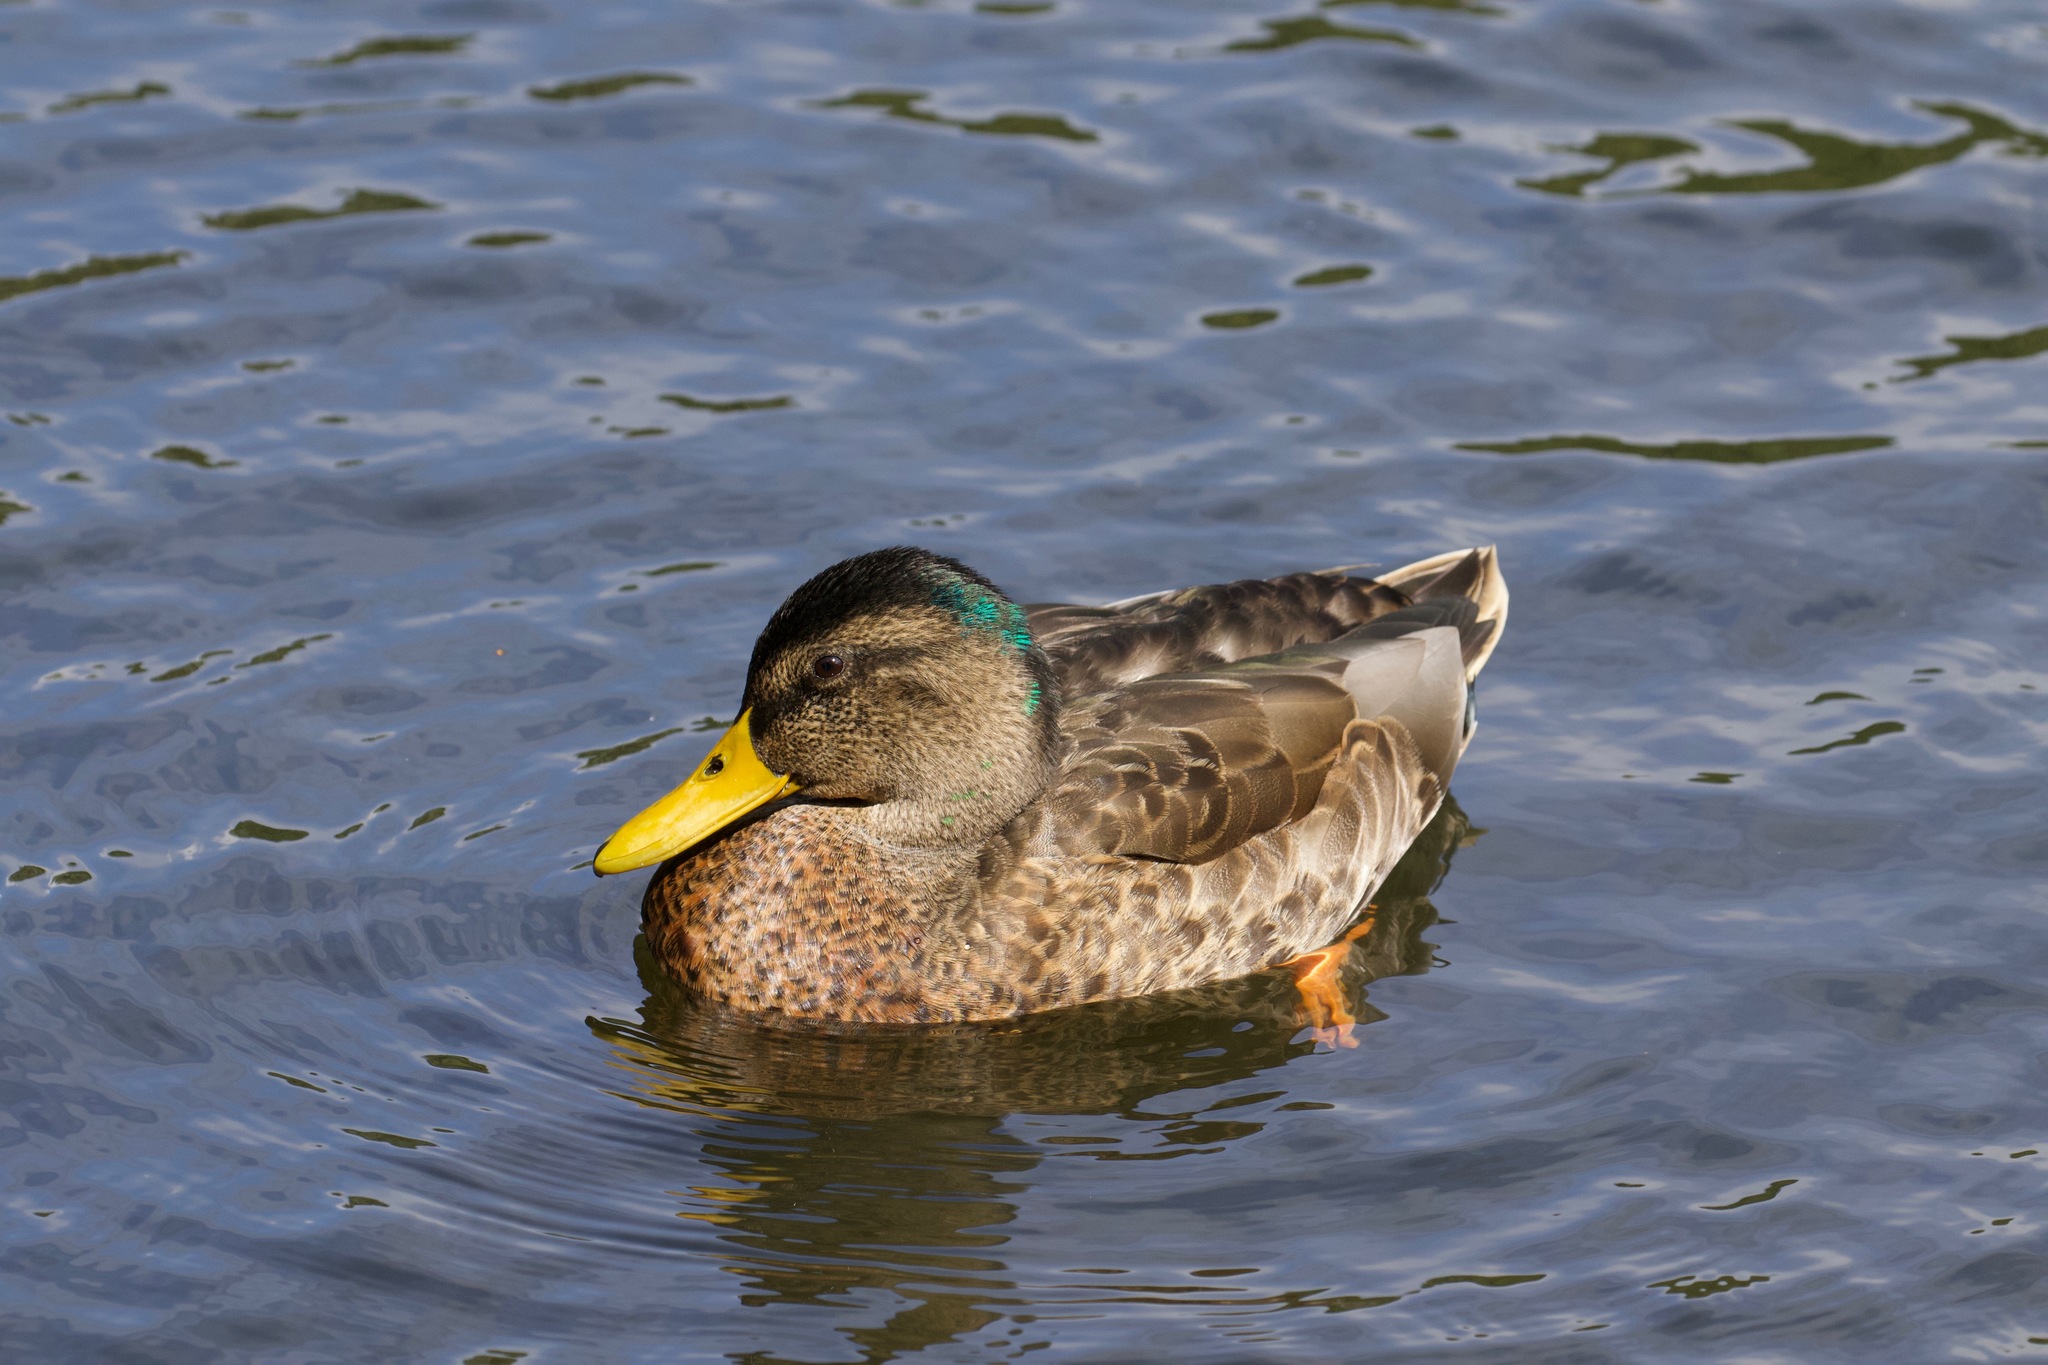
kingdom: Animalia
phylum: Chordata
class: Aves
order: Anseriformes
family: Anatidae
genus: Anas
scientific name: Anas platyrhynchos
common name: Mallard
